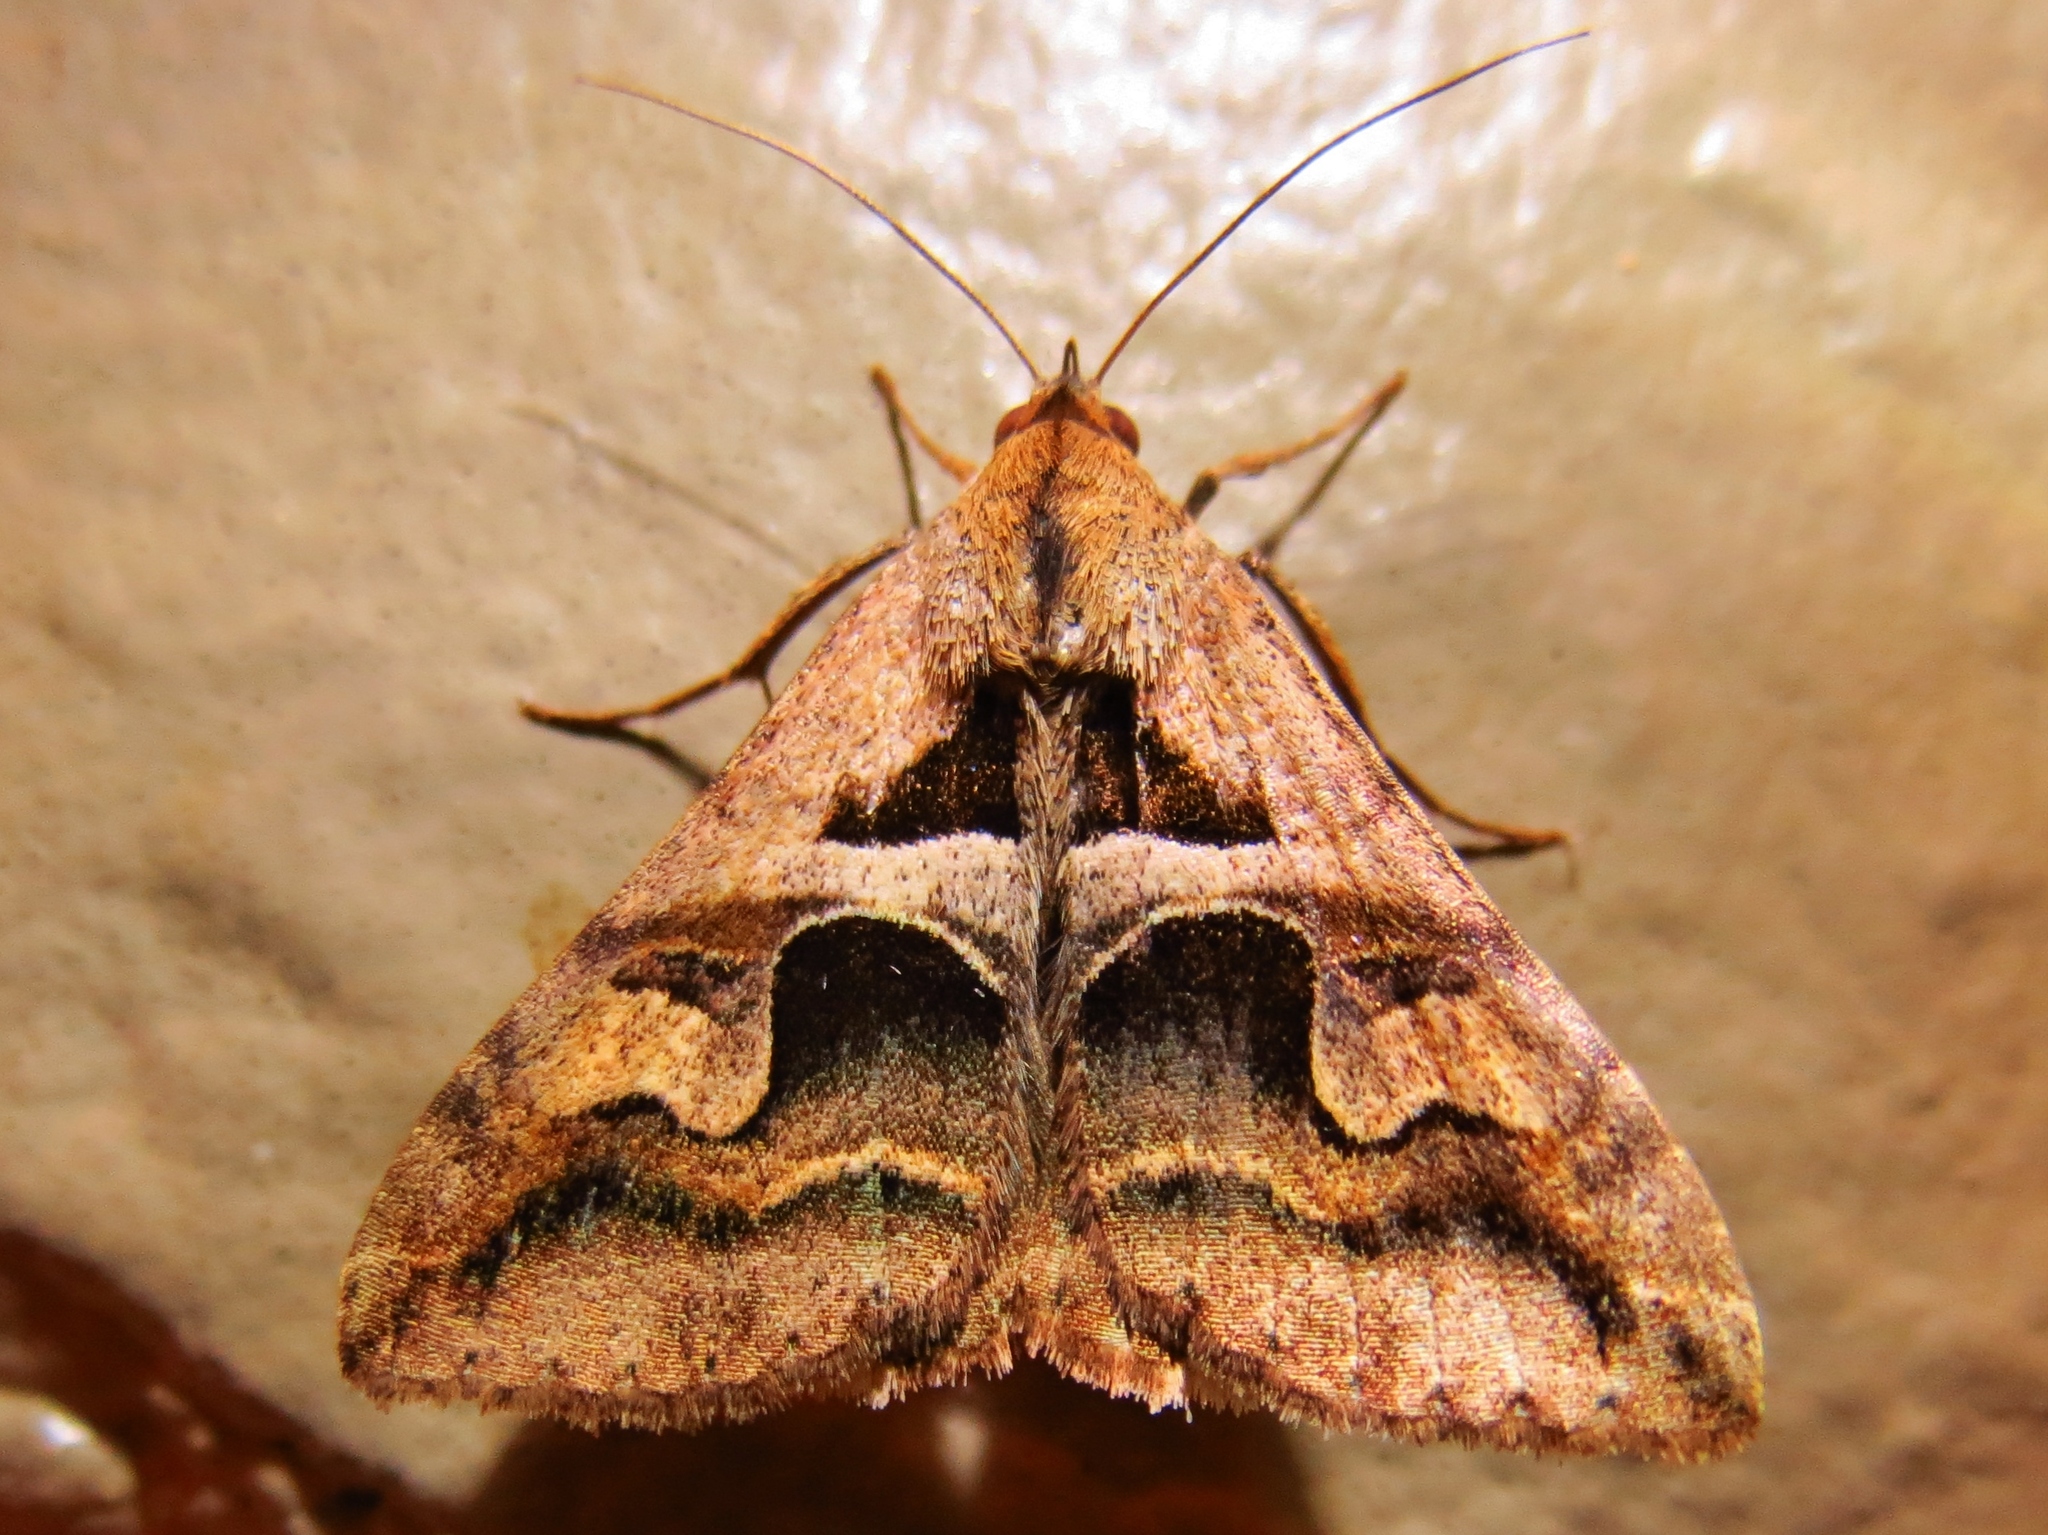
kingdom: Animalia
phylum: Arthropoda
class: Insecta
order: Lepidoptera
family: Erebidae
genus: Melipotis
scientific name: Melipotis cellaris
